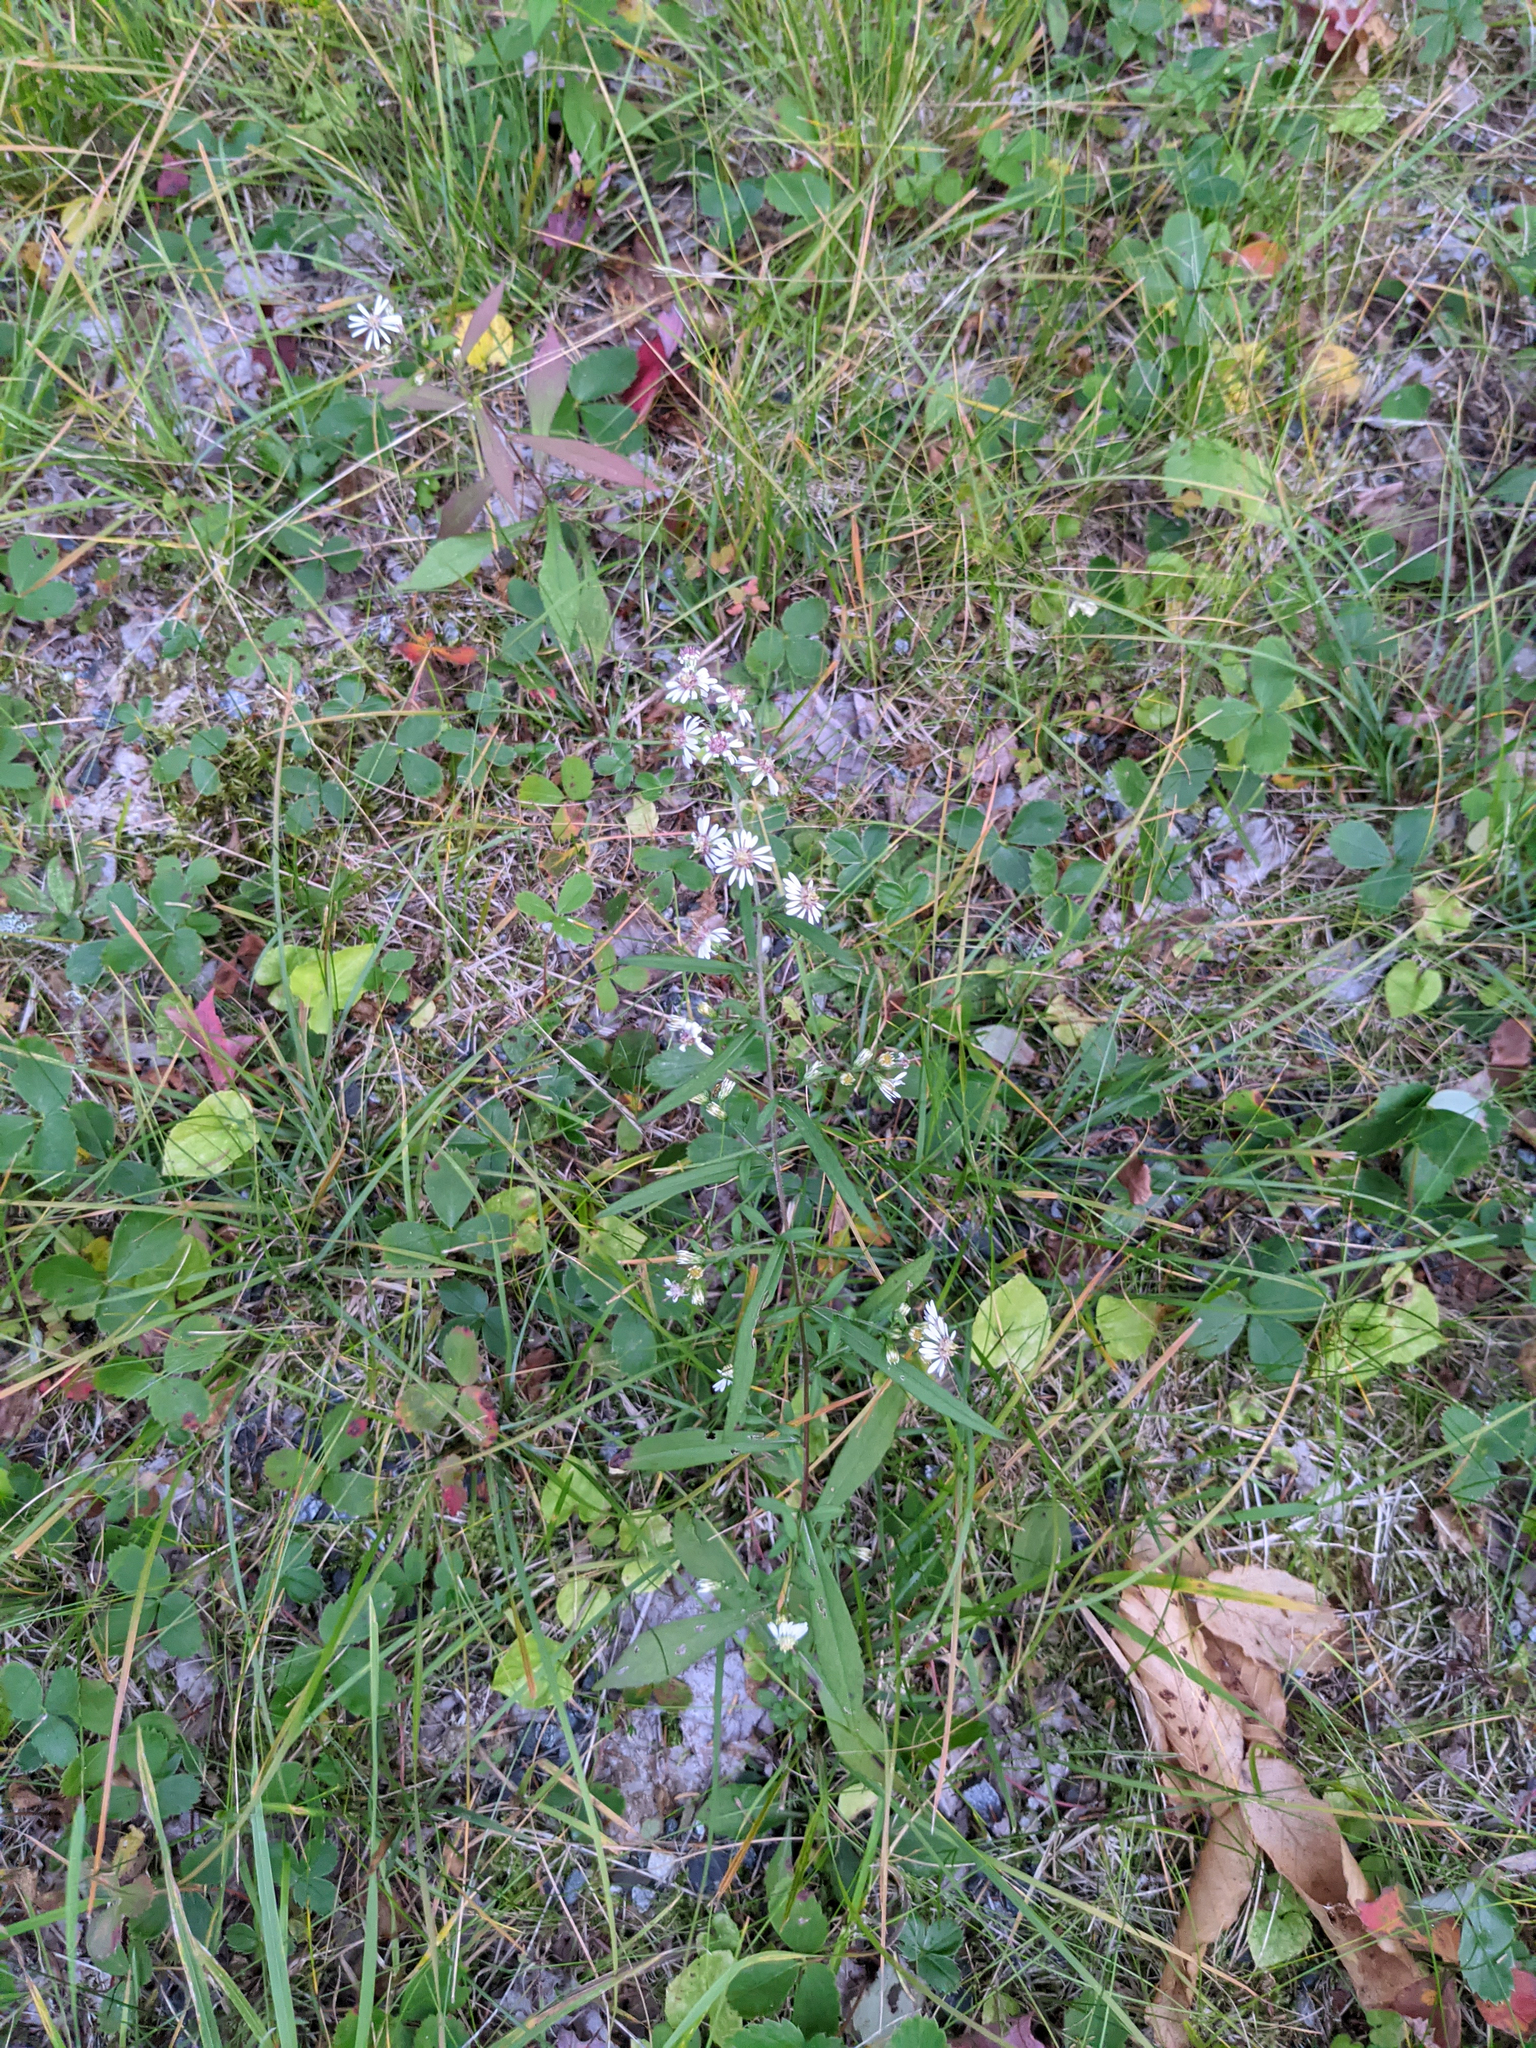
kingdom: Plantae
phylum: Tracheophyta
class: Magnoliopsida
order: Asterales
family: Asteraceae
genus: Symphyotrichum
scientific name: Symphyotrichum lateriflorum
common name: Calico aster
